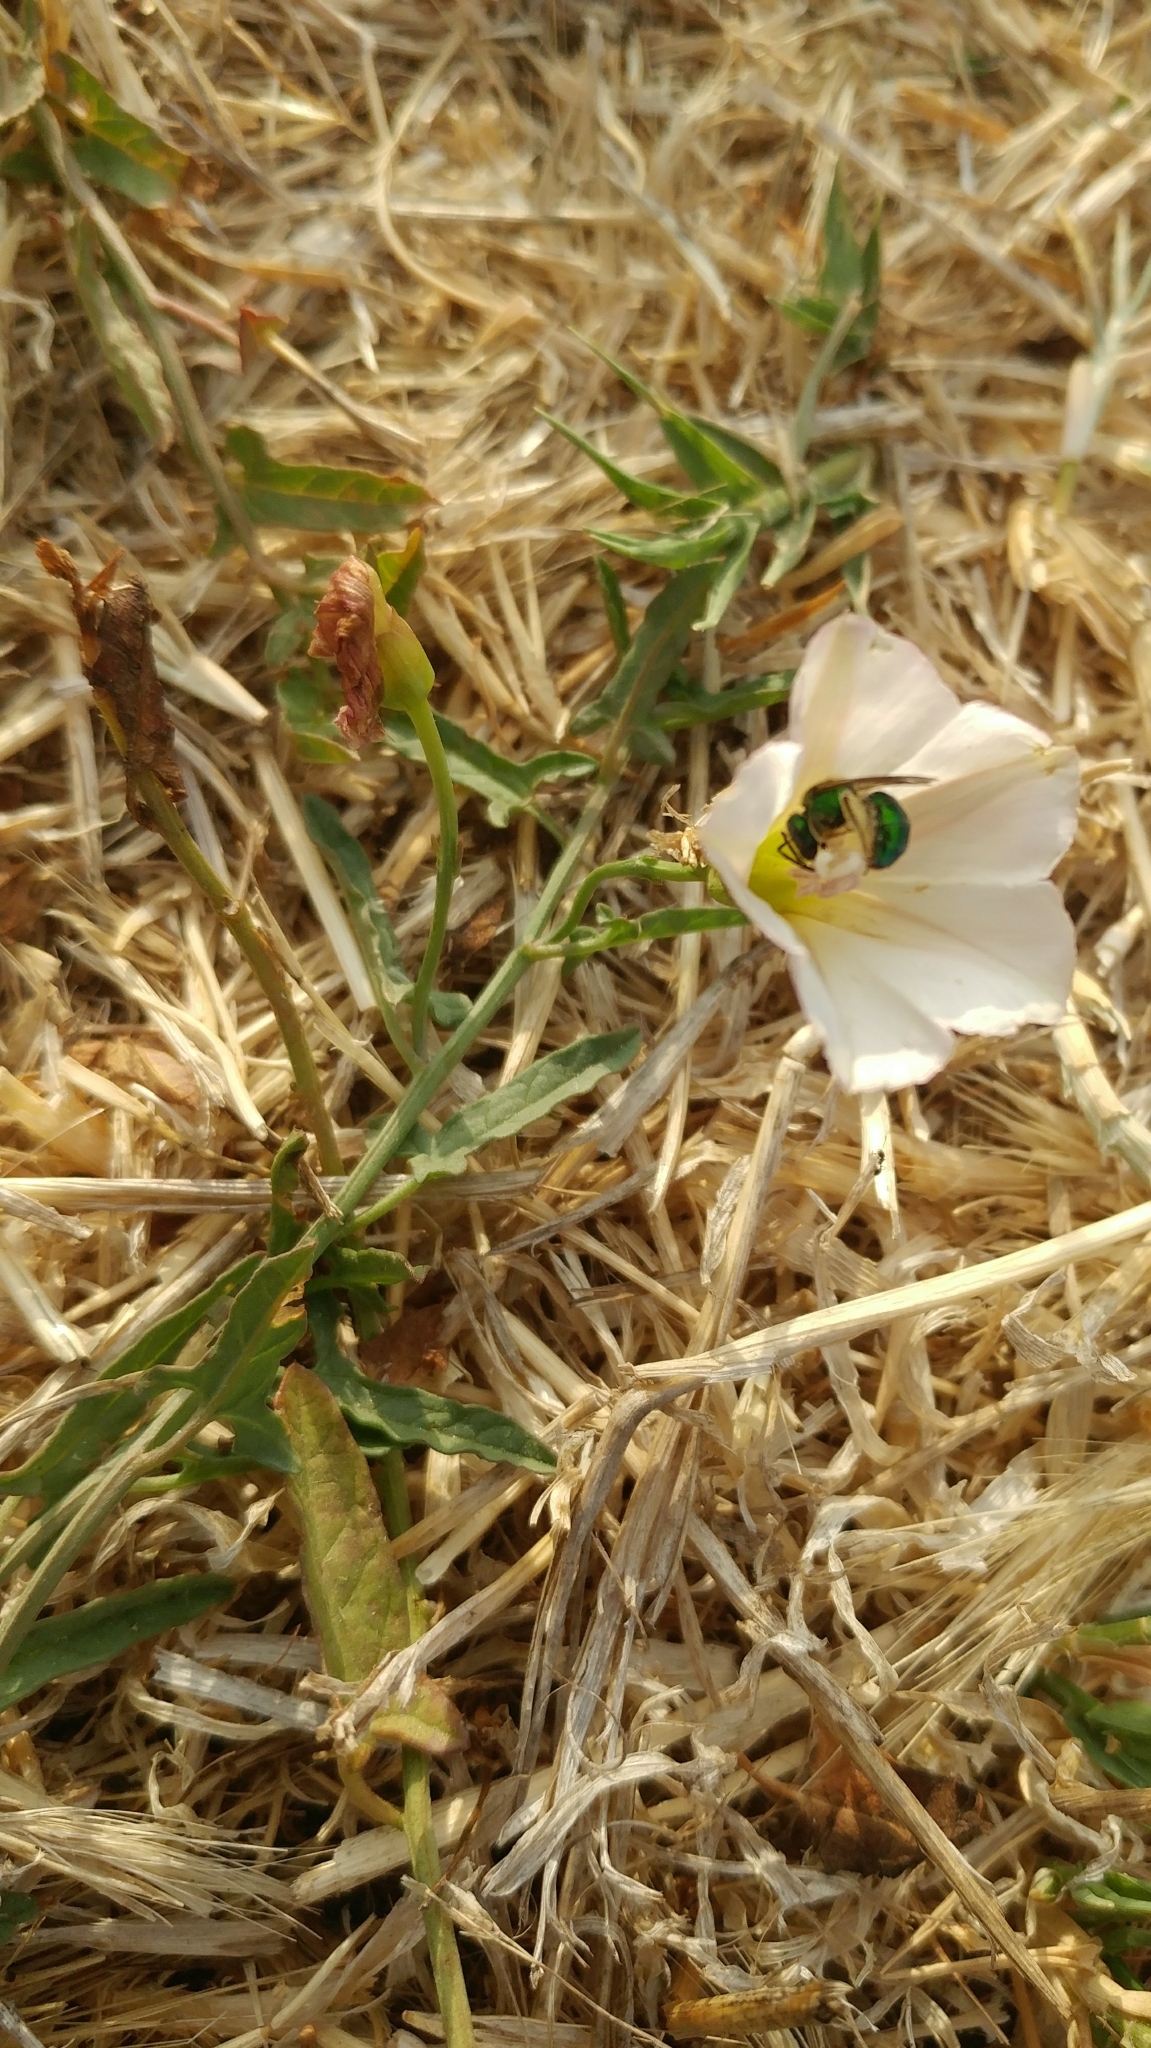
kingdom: Plantae
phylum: Tracheophyta
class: Magnoliopsida
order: Solanales
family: Convolvulaceae
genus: Convolvulus
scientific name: Convolvulus arvensis
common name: Field bindweed
